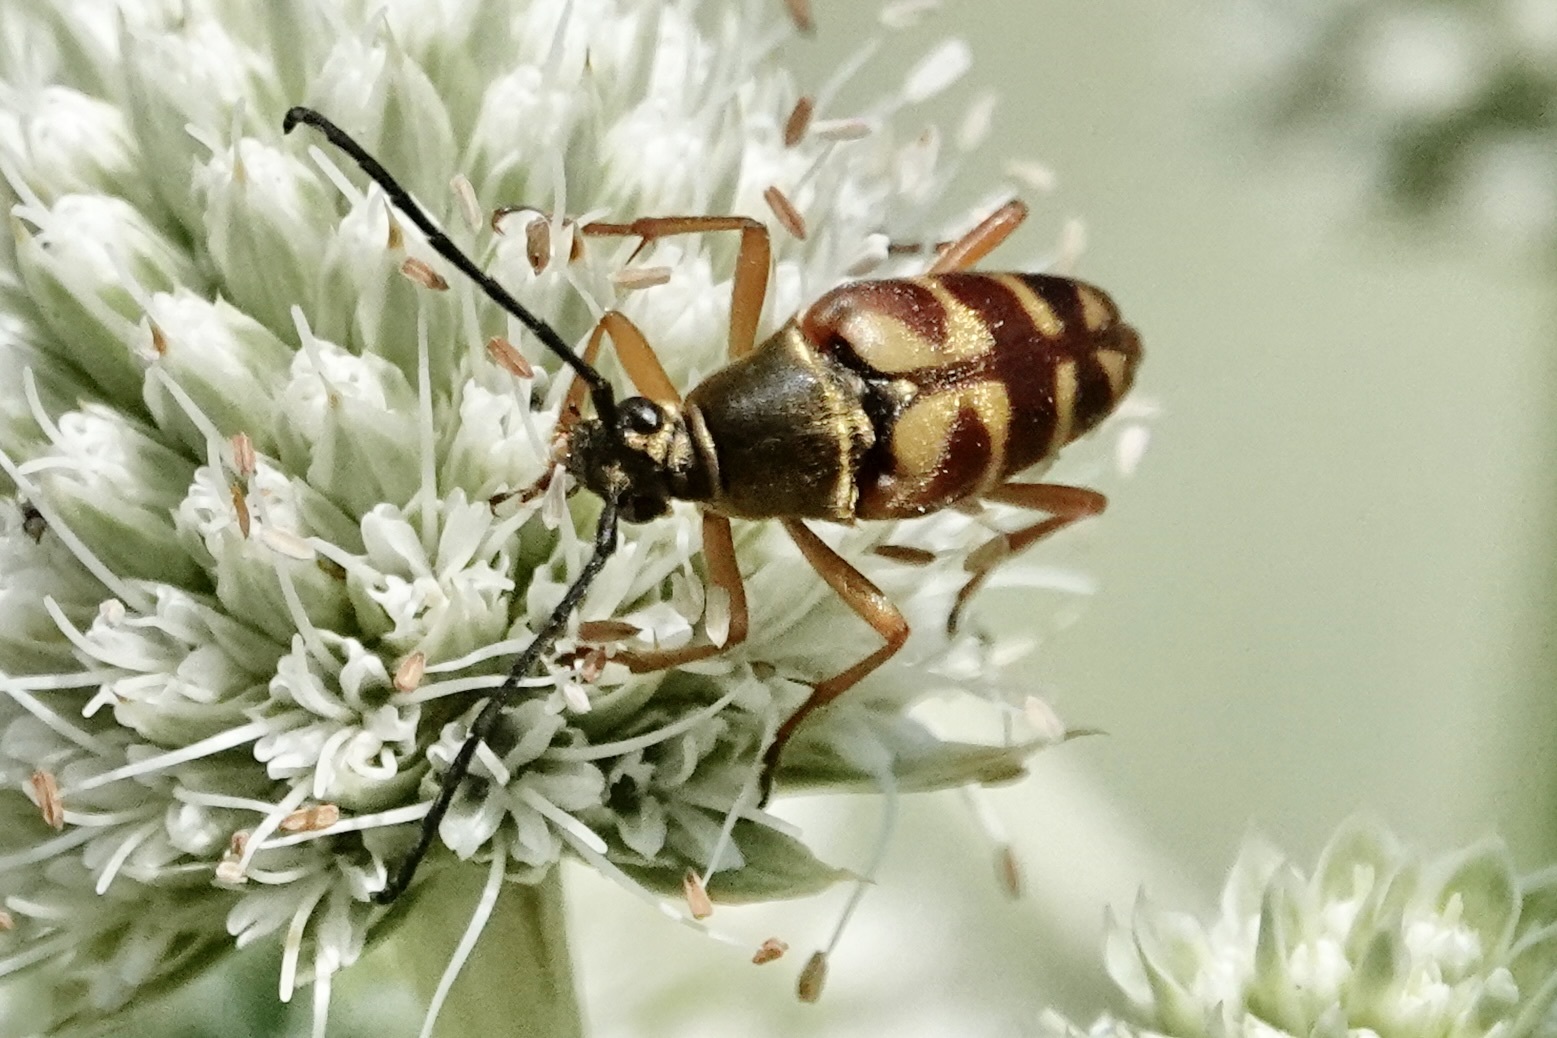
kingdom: Animalia
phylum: Arthropoda
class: Insecta
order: Coleoptera
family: Cerambycidae
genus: Typocerus
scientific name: Typocerus velutinus
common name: Banded longhorn beetle
